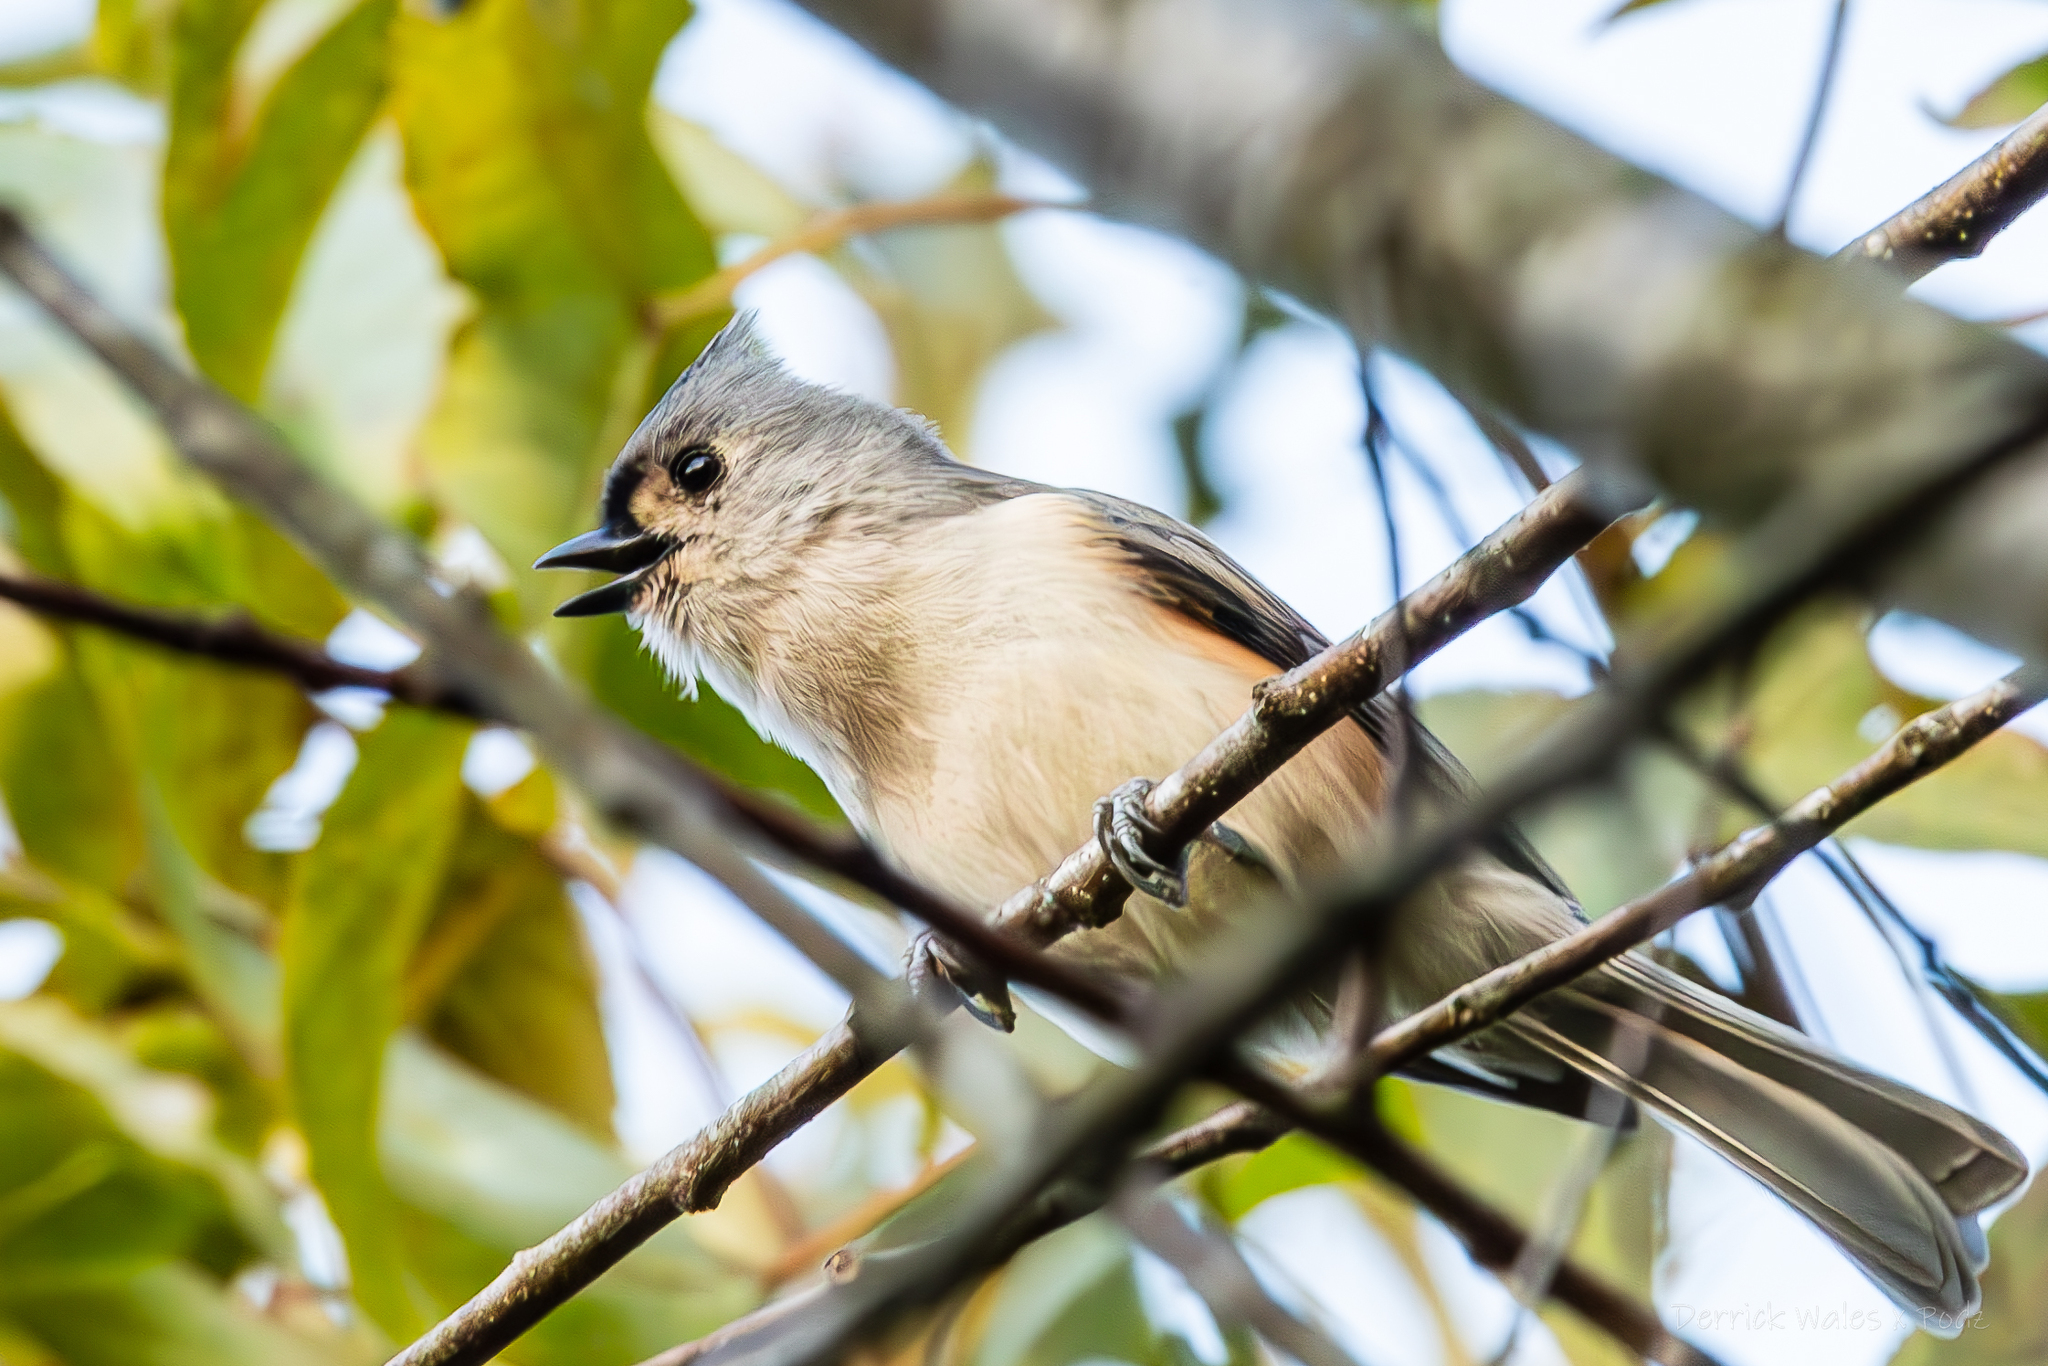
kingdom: Animalia
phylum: Chordata
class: Aves
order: Passeriformes
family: Paridae
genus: Baeolophus
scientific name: Baeolophus bicolor
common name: Tufted titmouse
